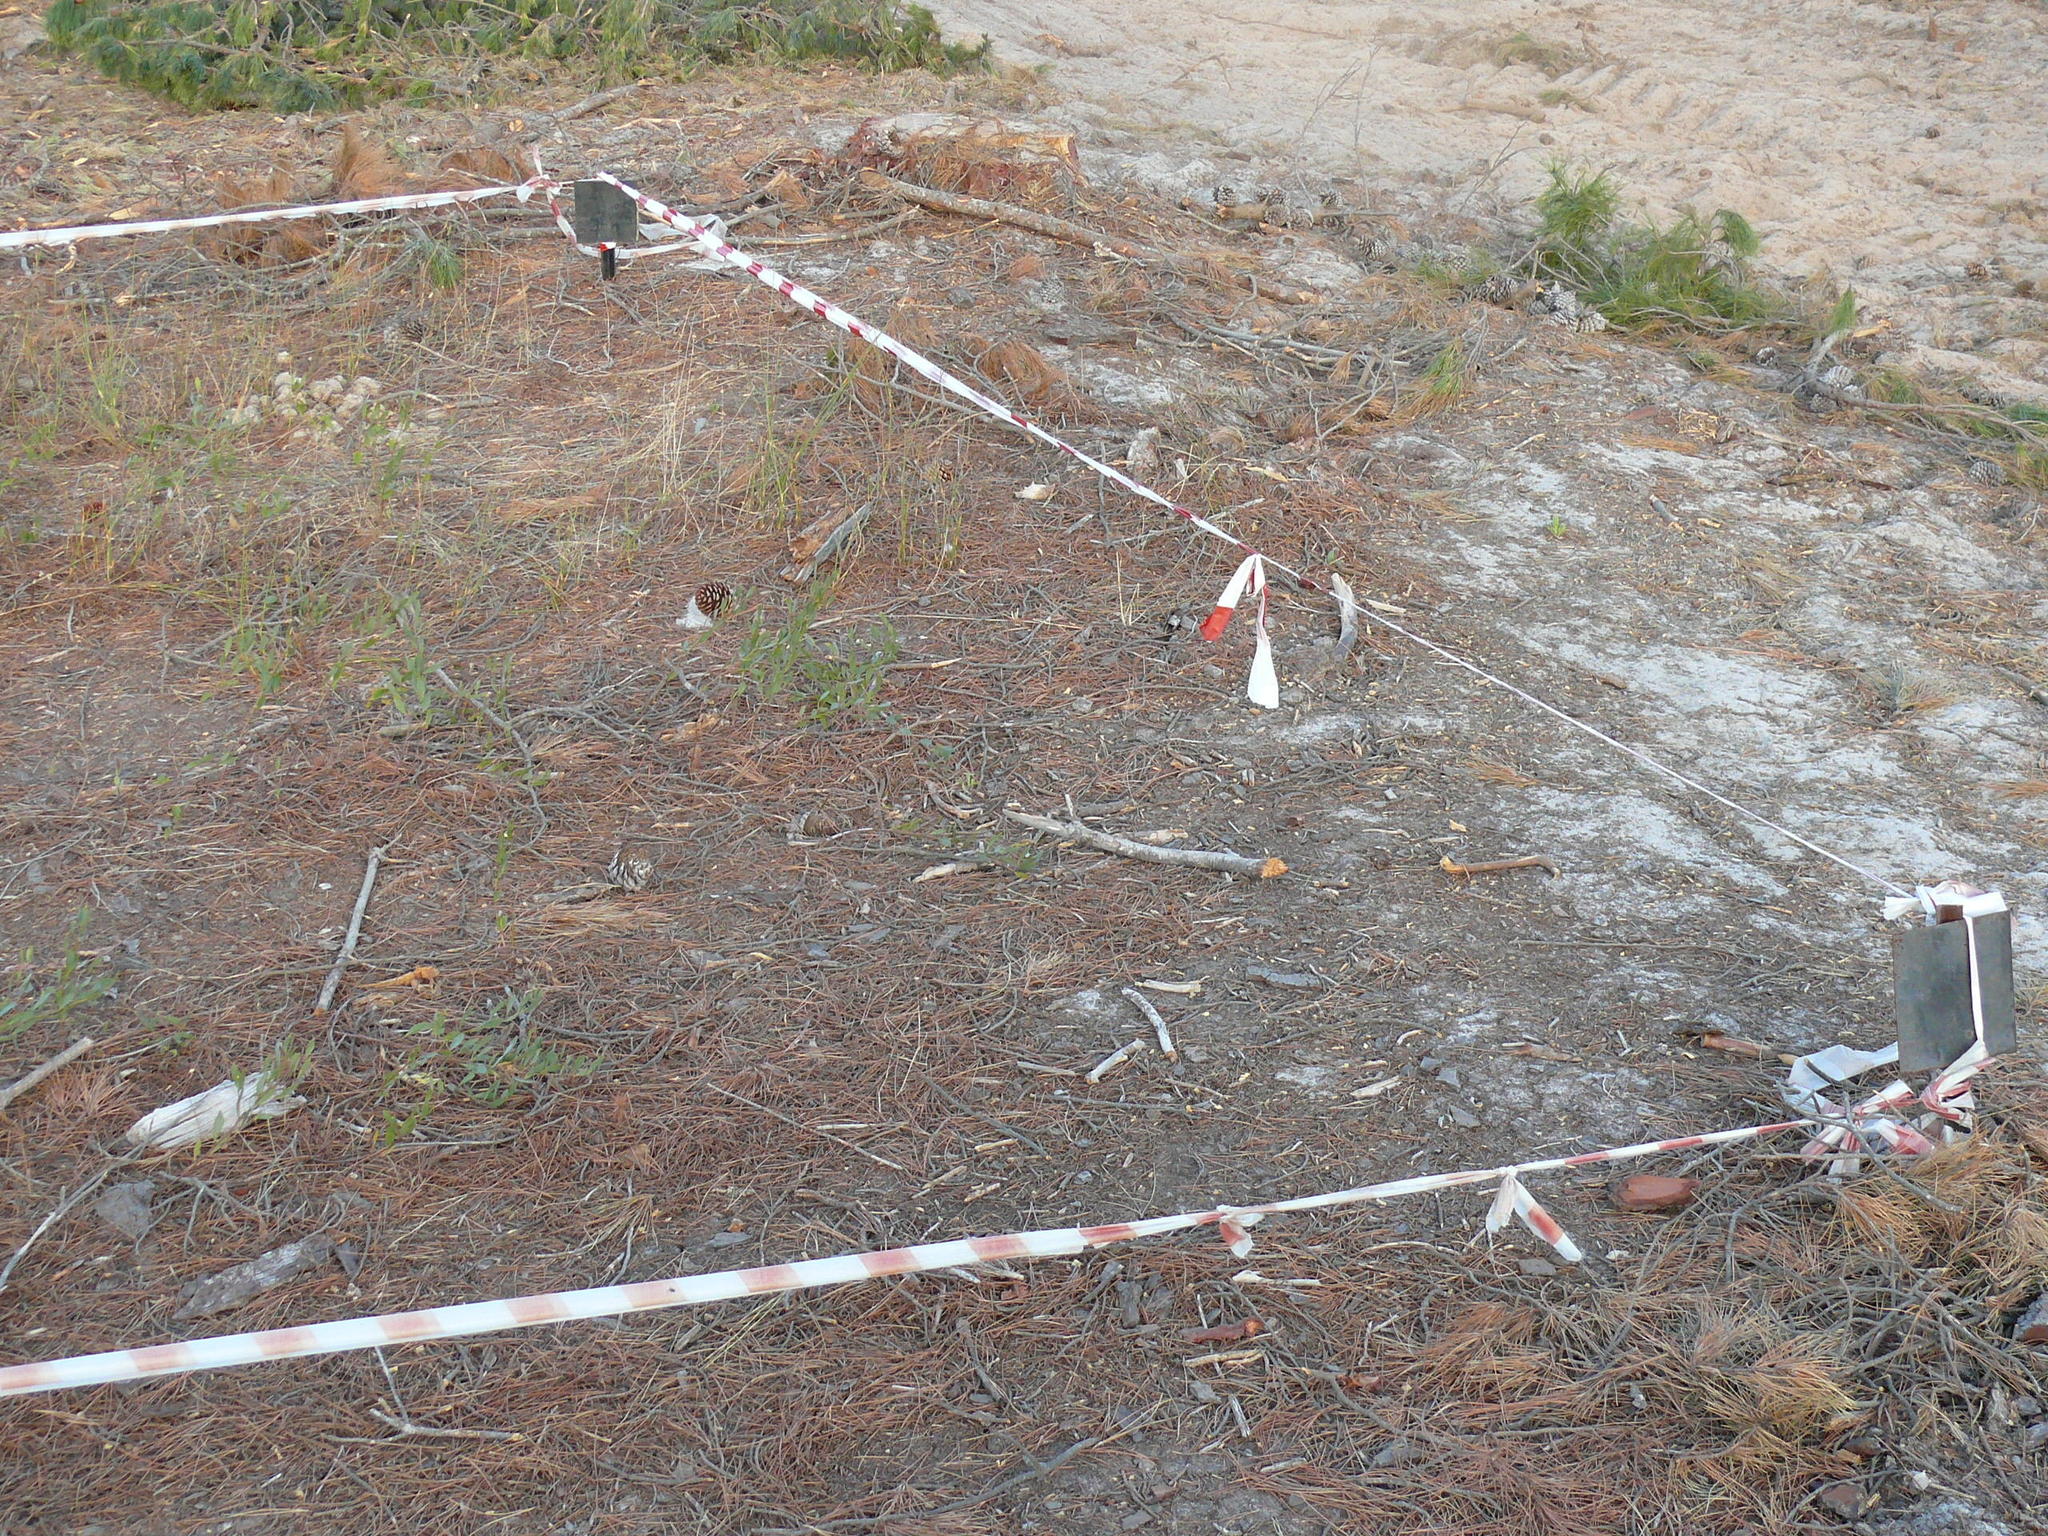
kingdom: Plantae
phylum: Tracheophyta
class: Magnoliopsida
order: Fabales
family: Fabaceae
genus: Rafnia
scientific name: Rafnia angulata
